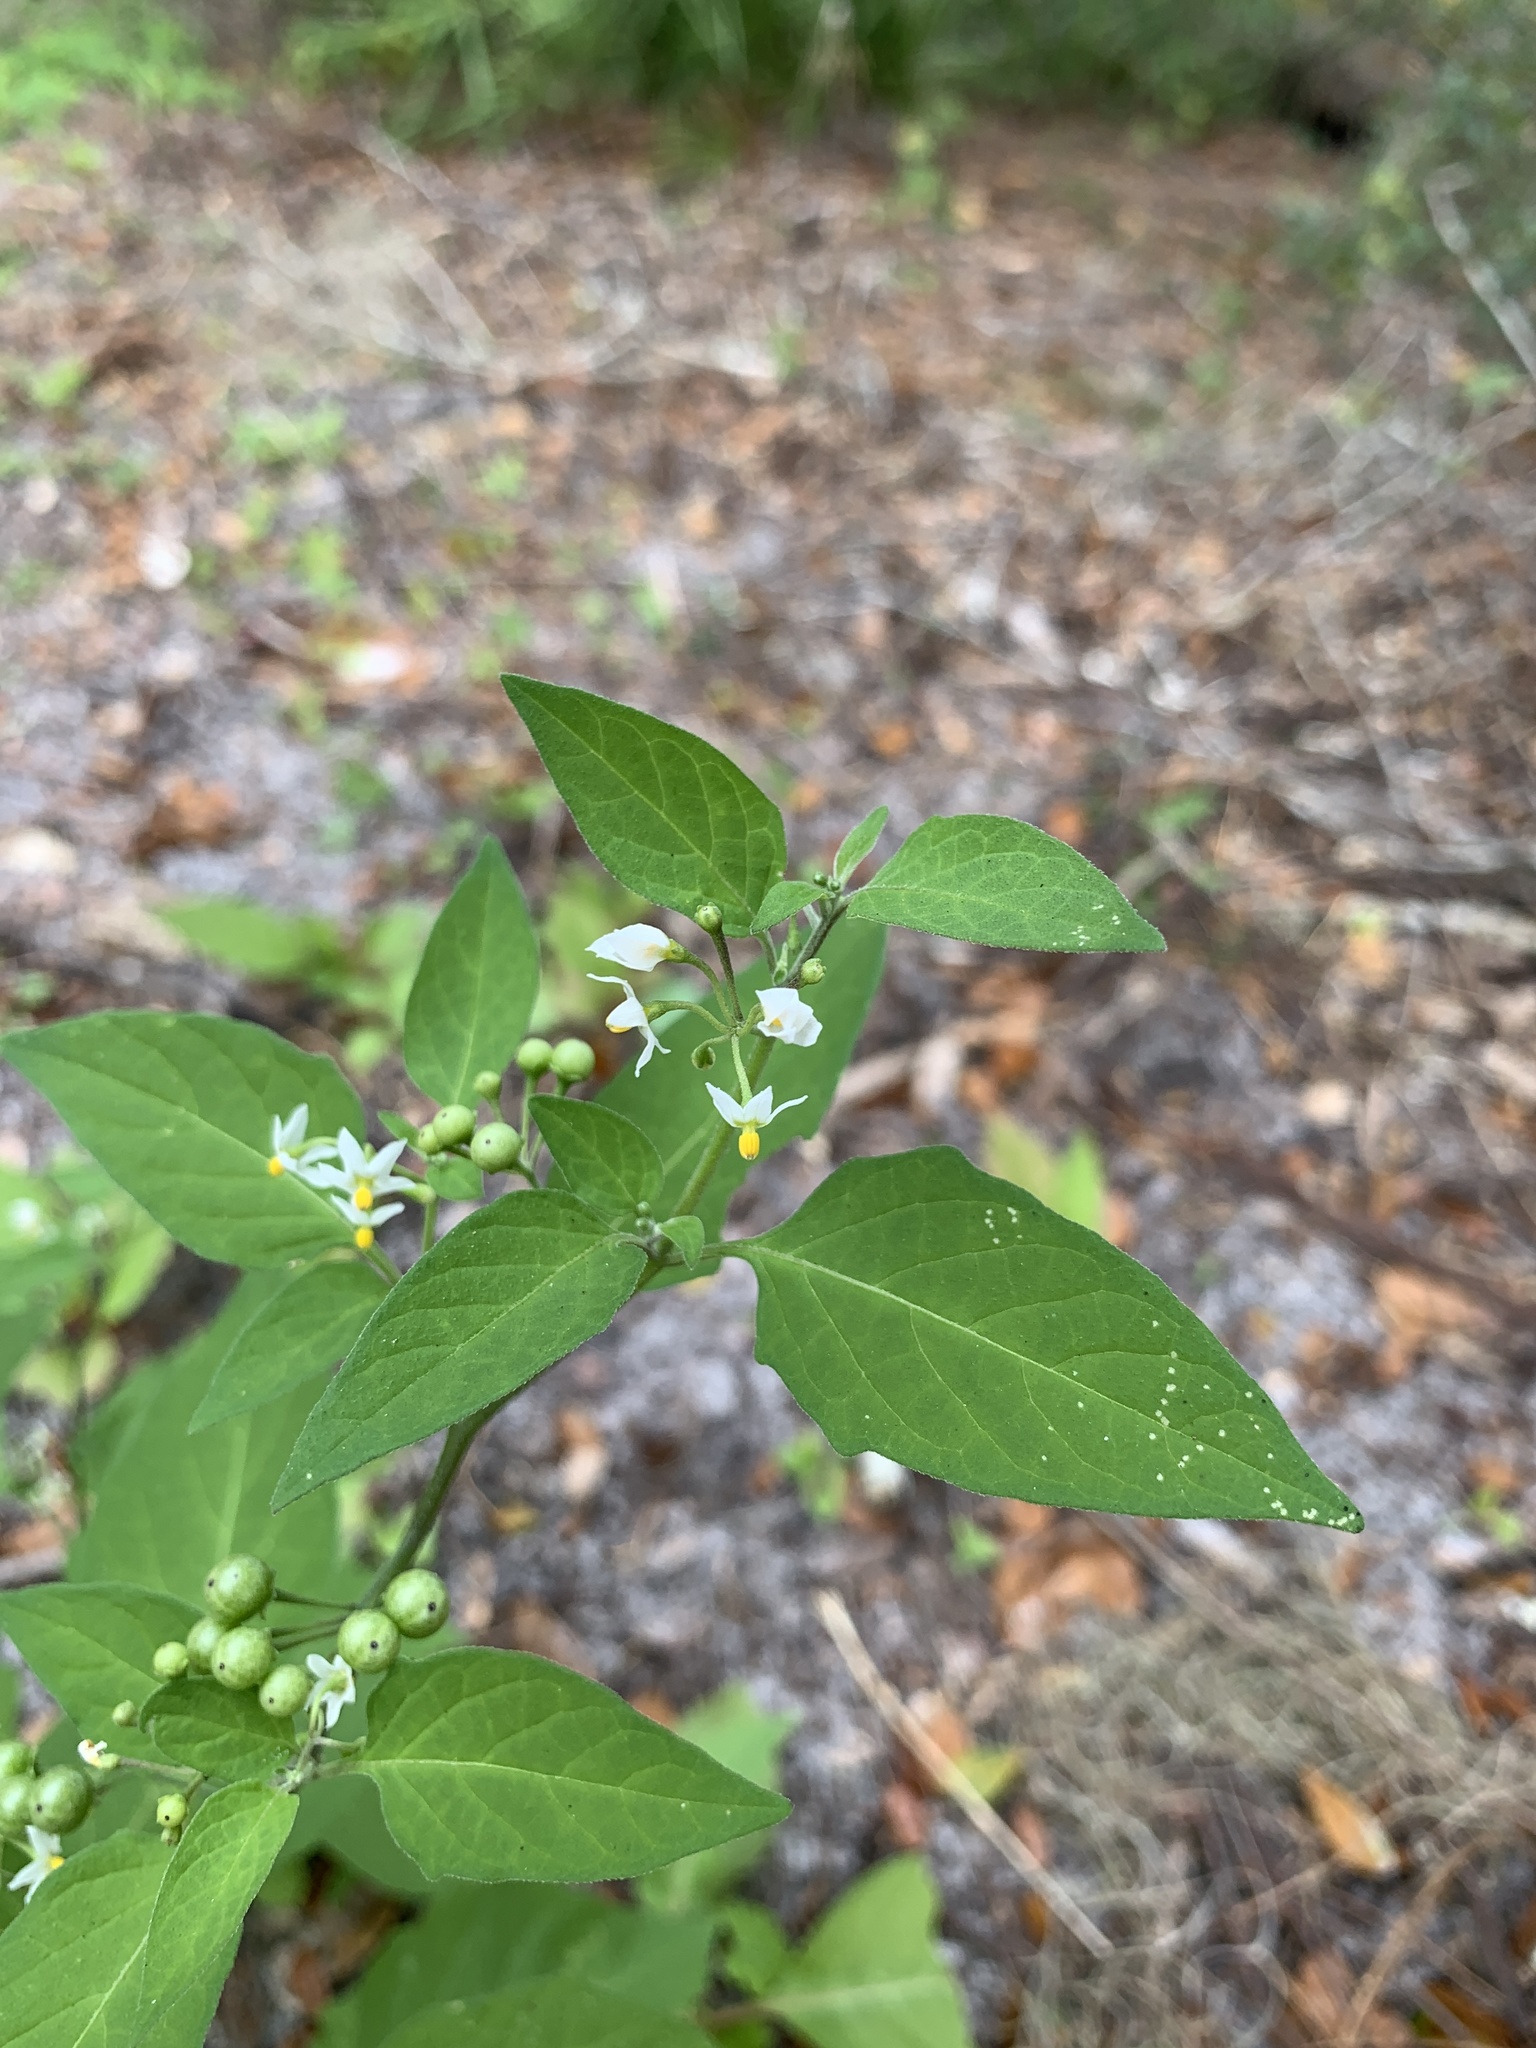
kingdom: Plantae
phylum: Tracheophyta
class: Magnoliopsida
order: Solanales
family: Solanaceae
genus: Solanum
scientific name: Solanum americanum
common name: American black nightshade
